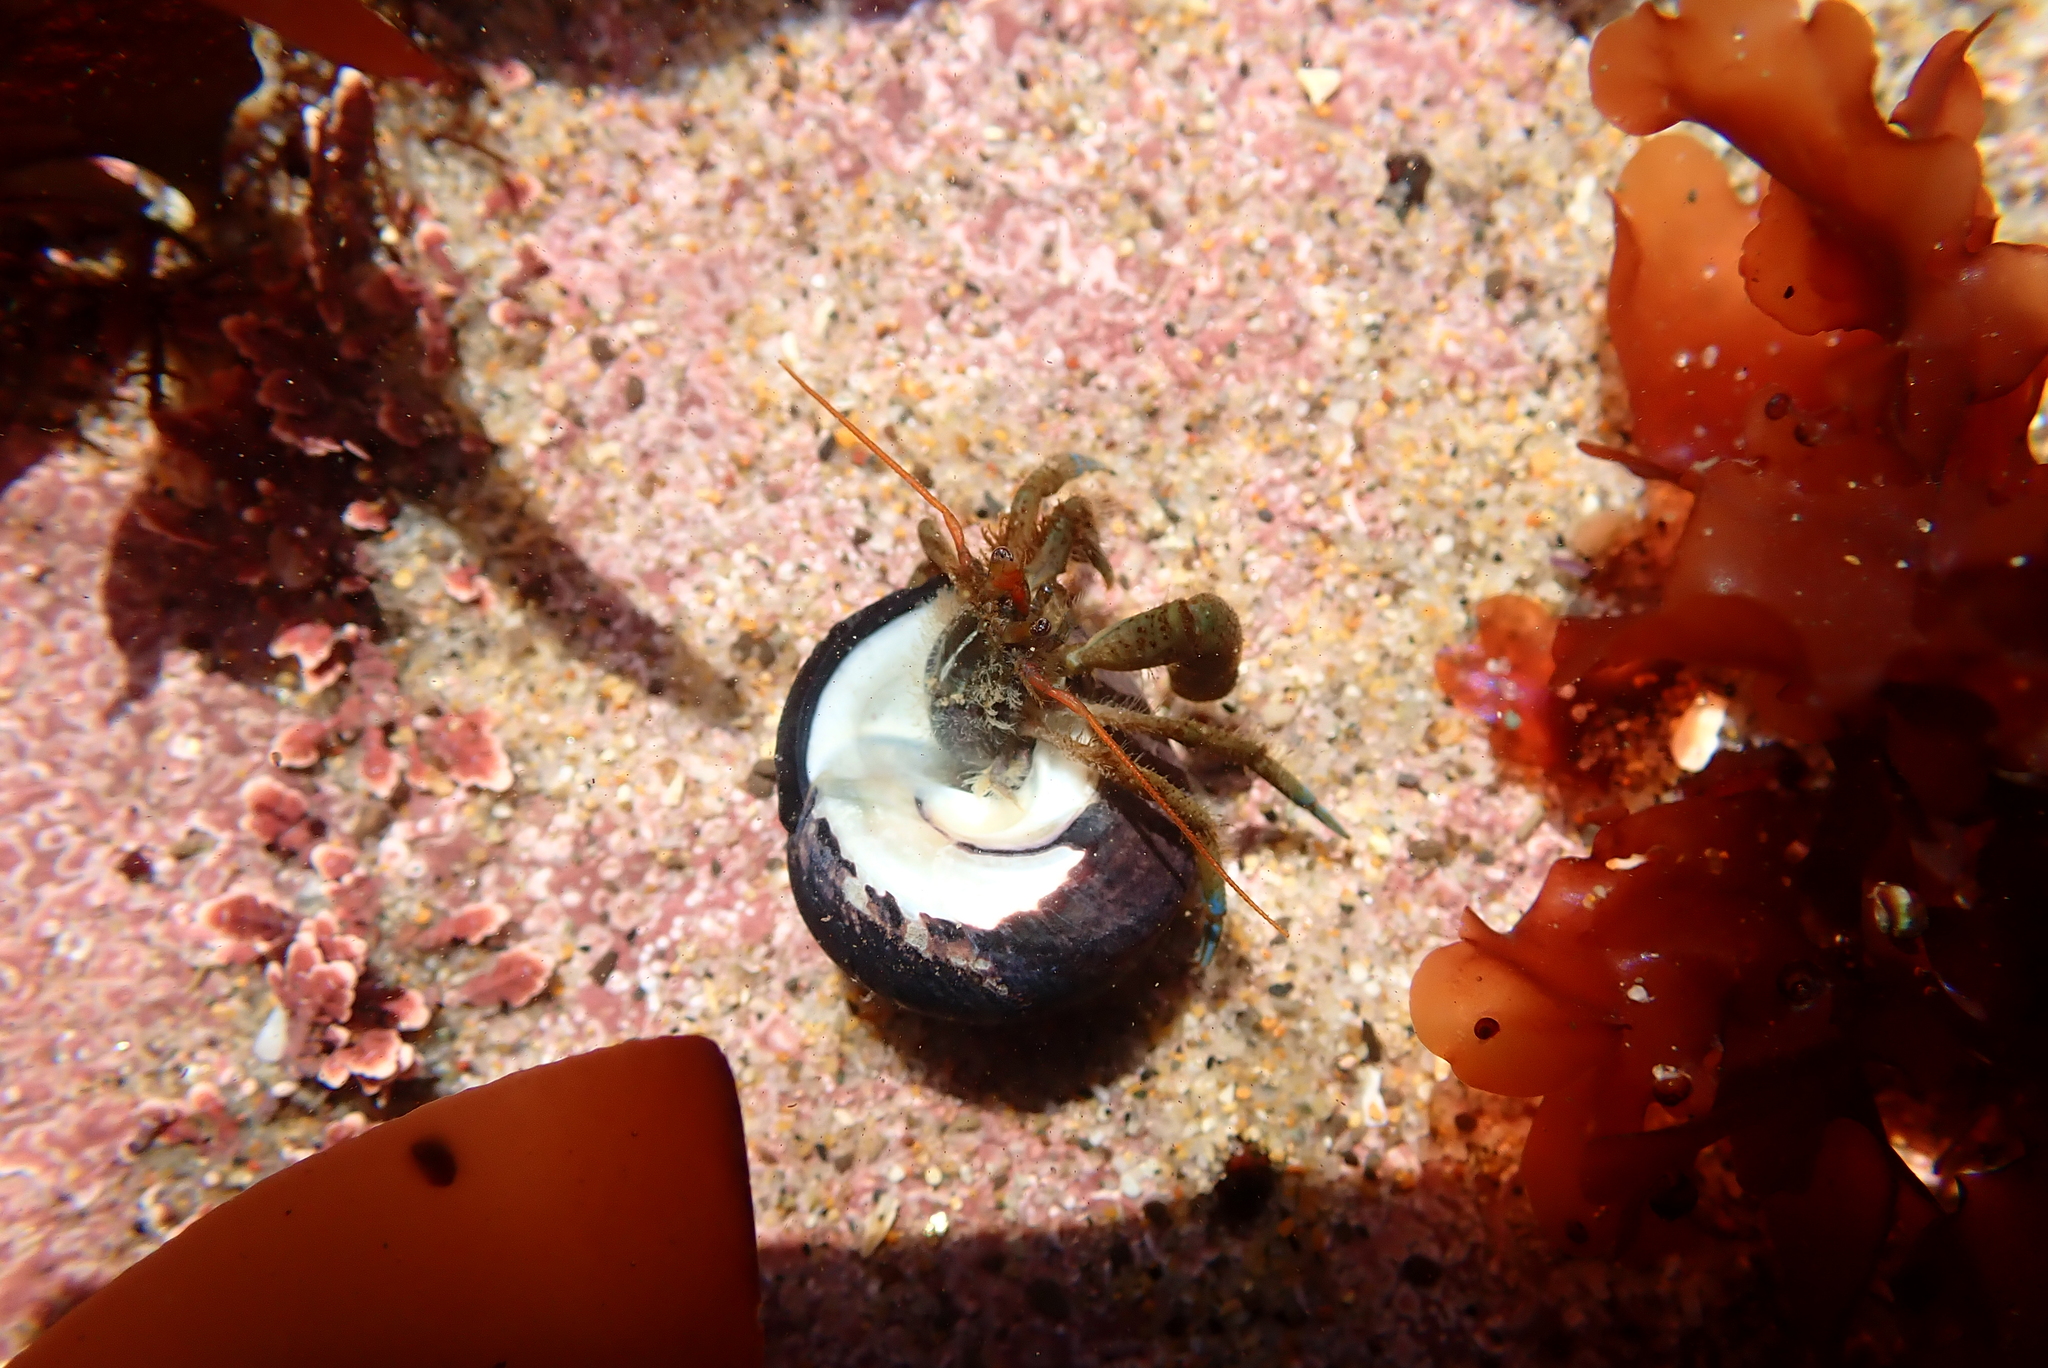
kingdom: Animalia
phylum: Arthropoda
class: Malacostraca
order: Decapoda
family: Paguridae
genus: Pagurus
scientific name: Pagurus samuelis
